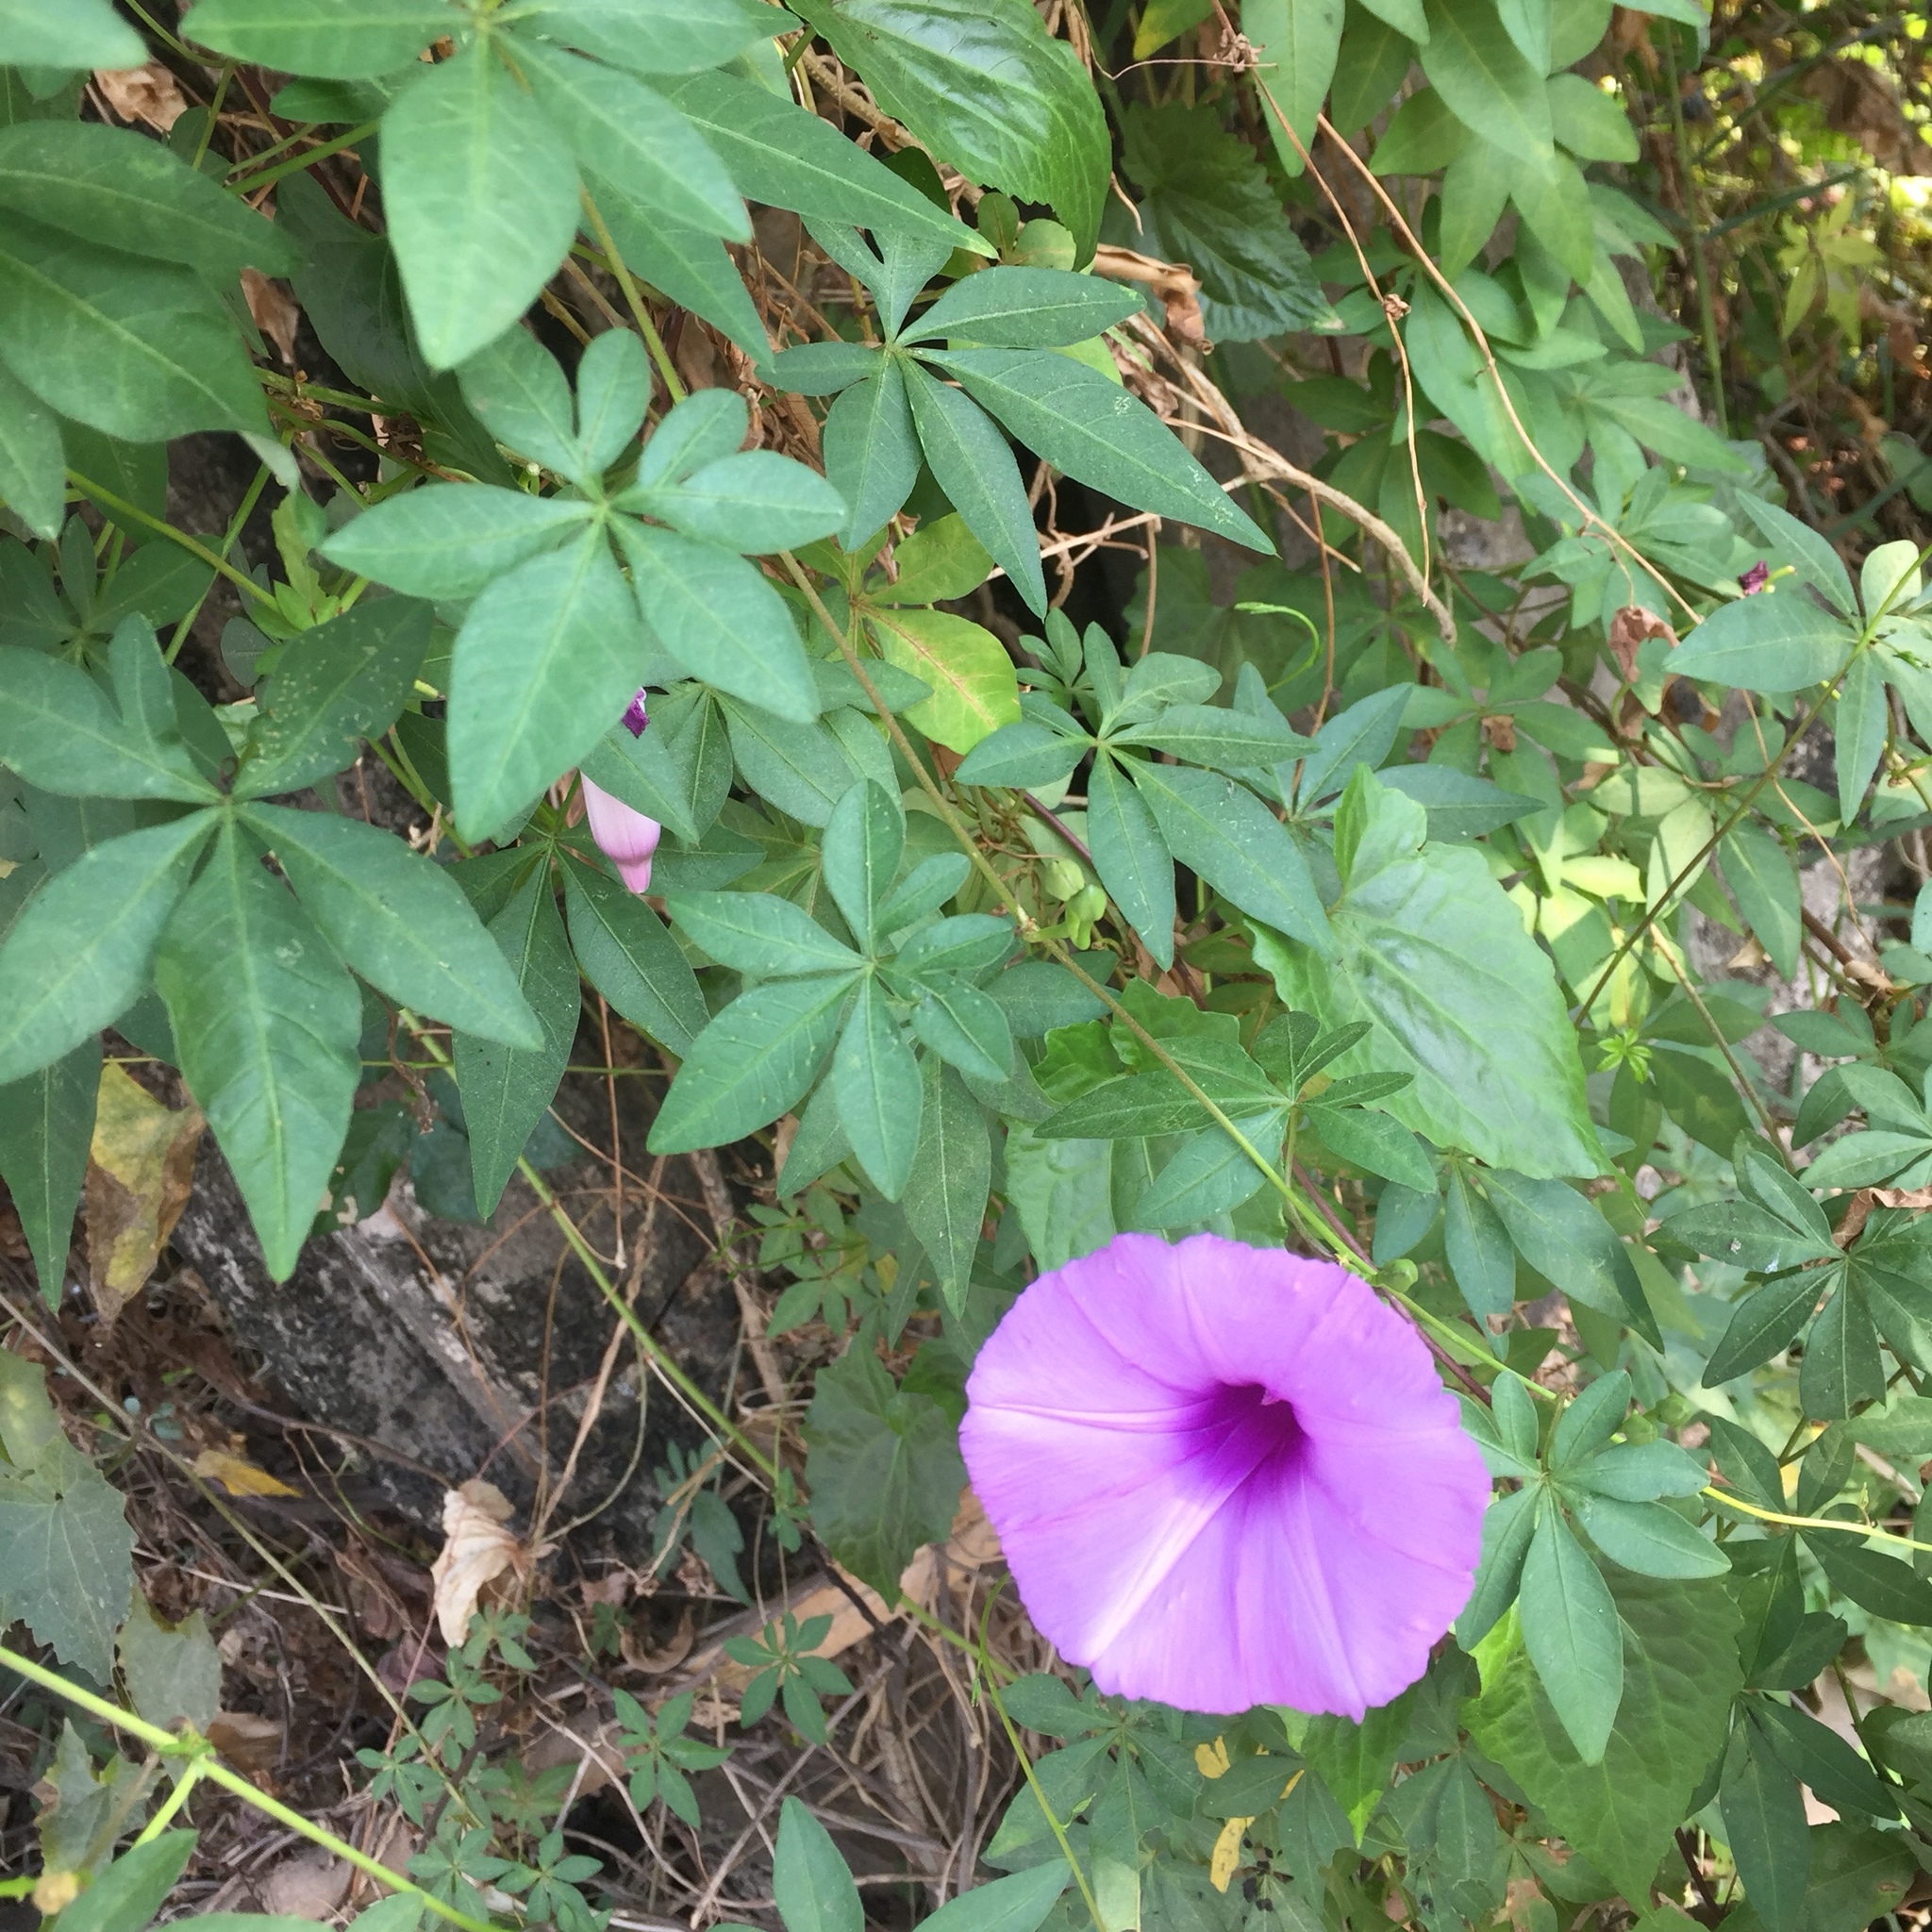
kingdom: Plantae
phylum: Tracheophyta
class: Magnoliopsida
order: Solanales
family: Convolvulaceae
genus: Ipomoea
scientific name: Ipomoea cairica
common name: Mile a minute vine
